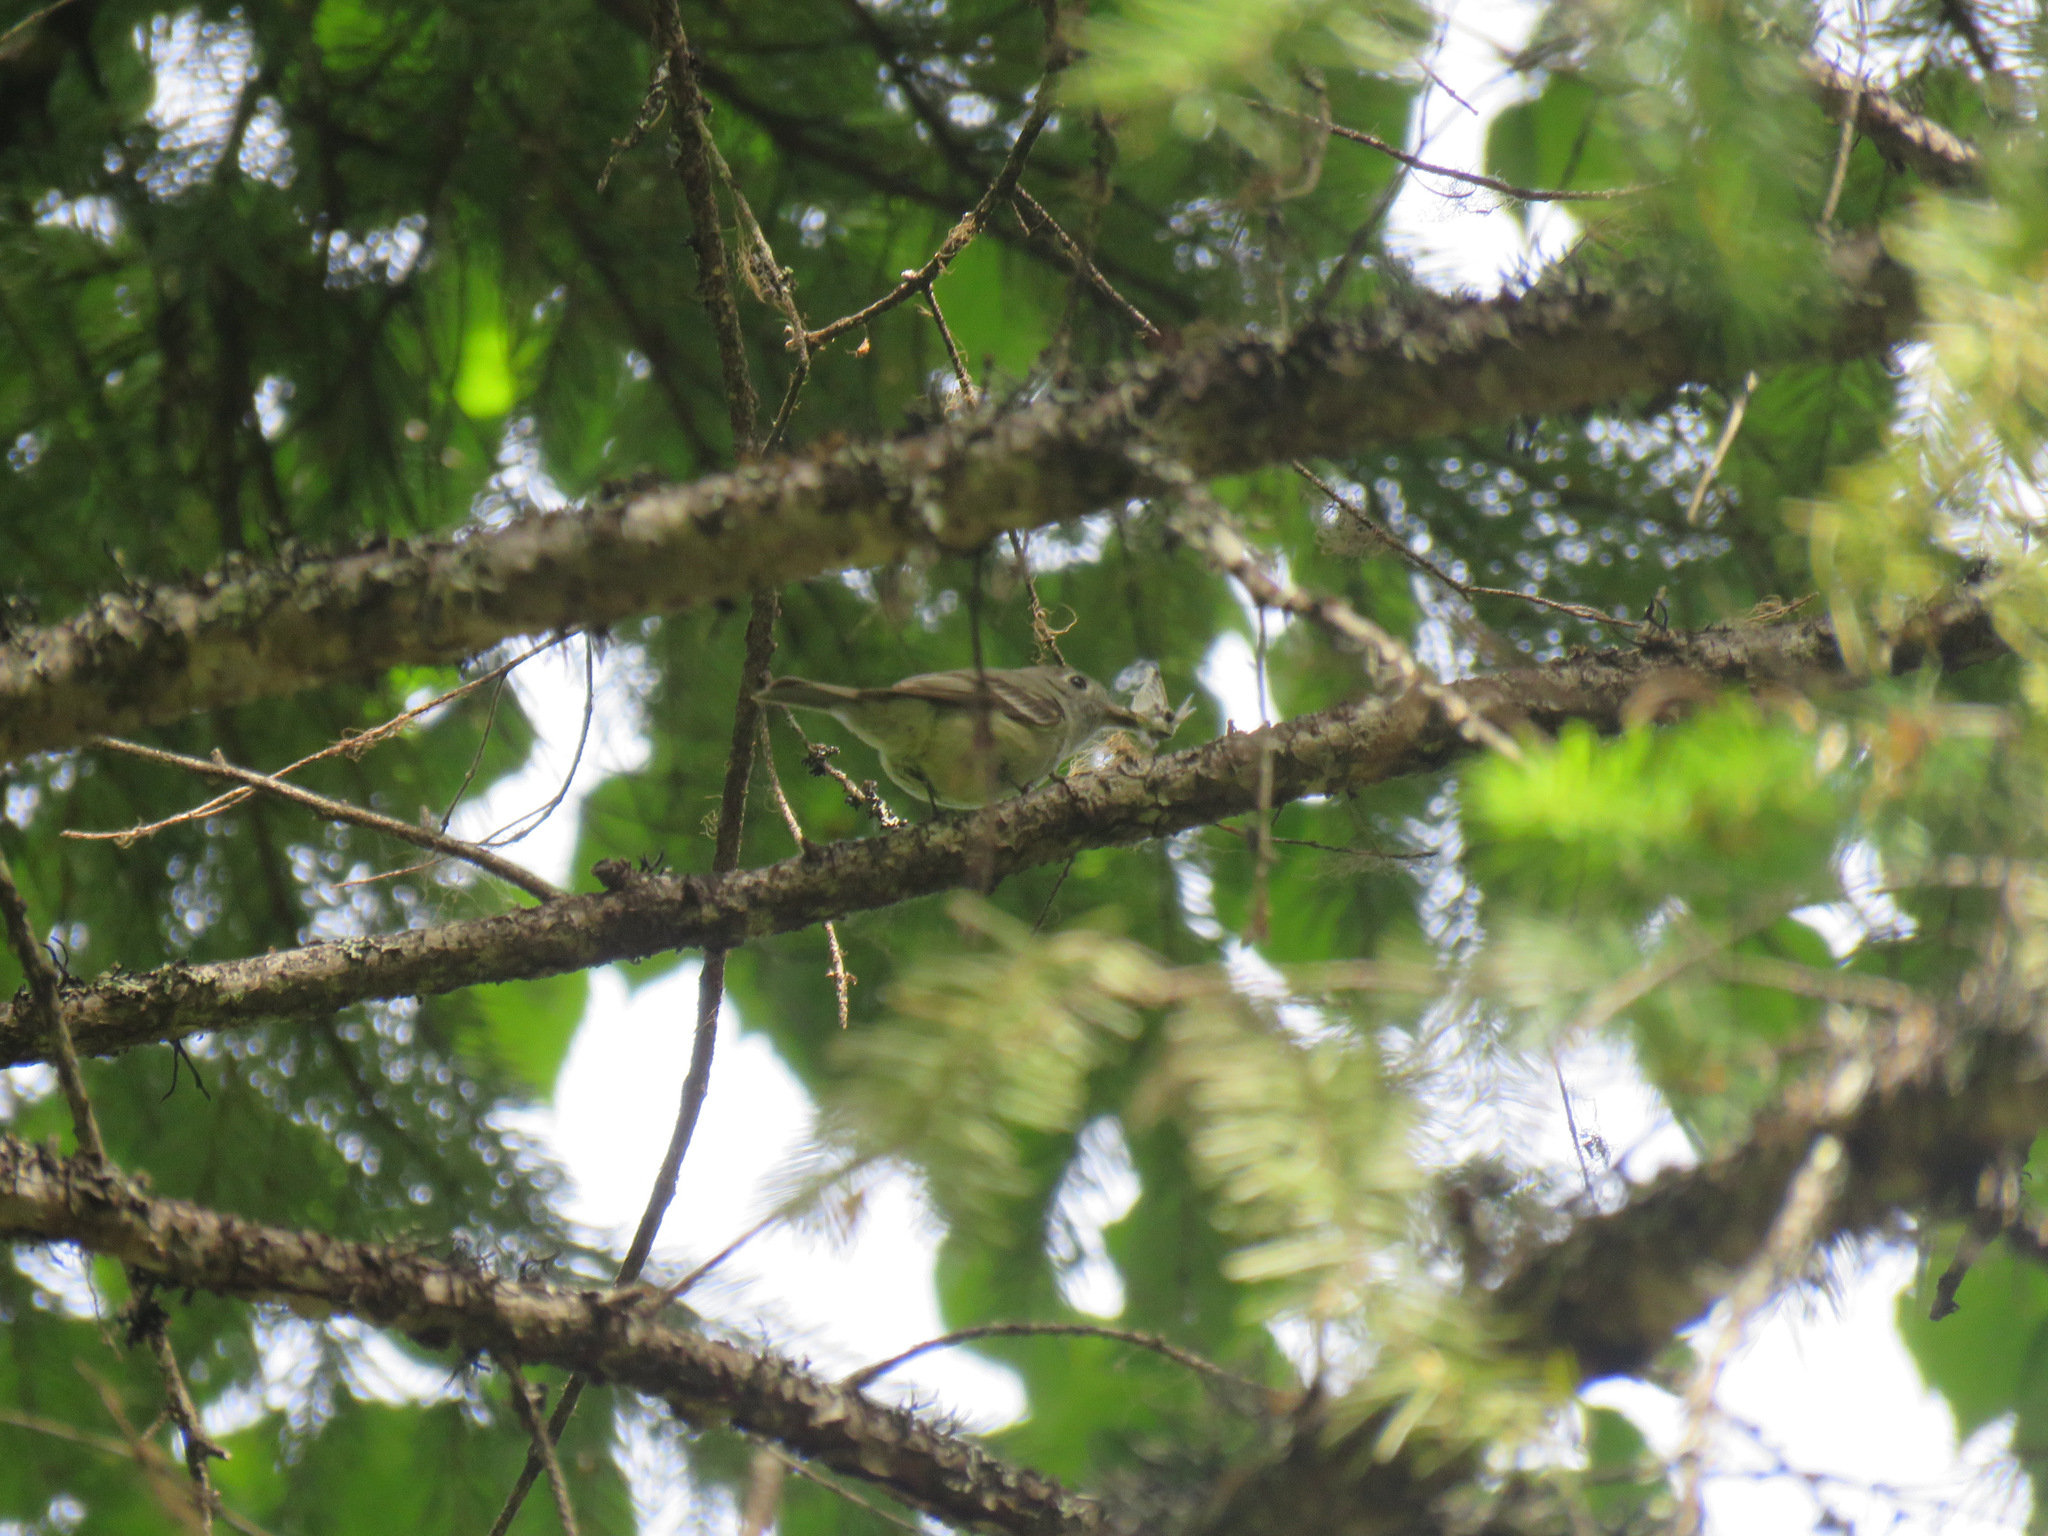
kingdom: Animalia
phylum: Chordata
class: Aves
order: Passeriformes
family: Tyrannidae
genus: Empidonax
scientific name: Empidonax oberholseri
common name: Dusky flycatcher
